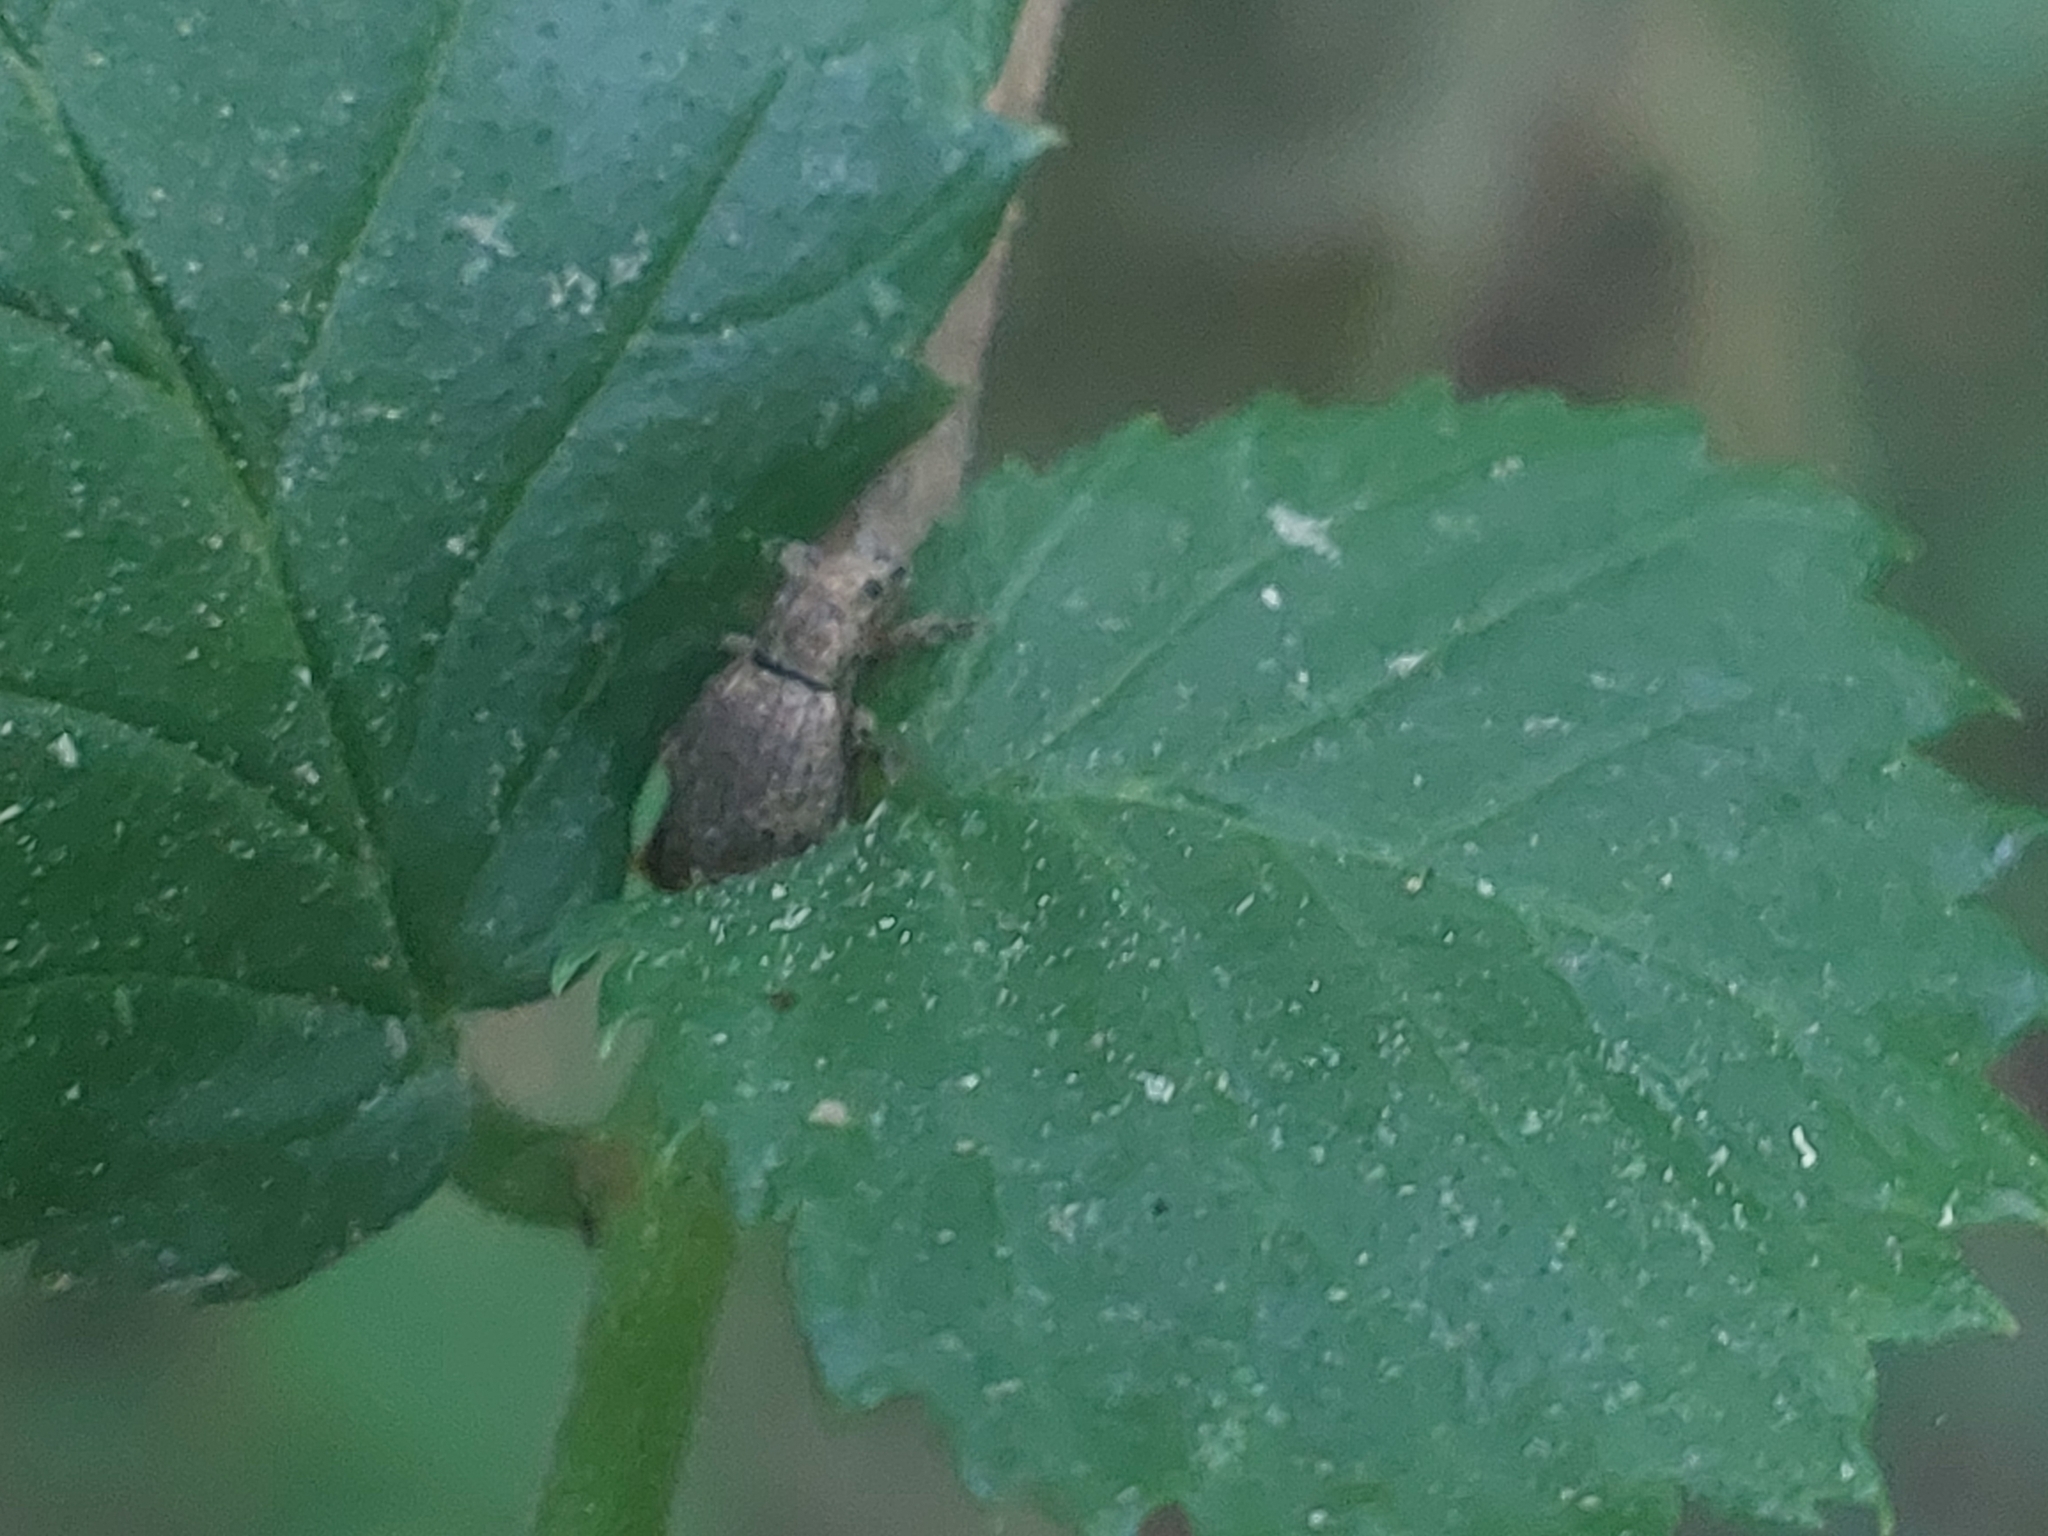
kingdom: Animalia
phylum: Arthropoda
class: Insecta
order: Coleoptera
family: Curculionidae
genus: Sciaphilus
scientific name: Sciaphilus asperatus
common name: Weevil
